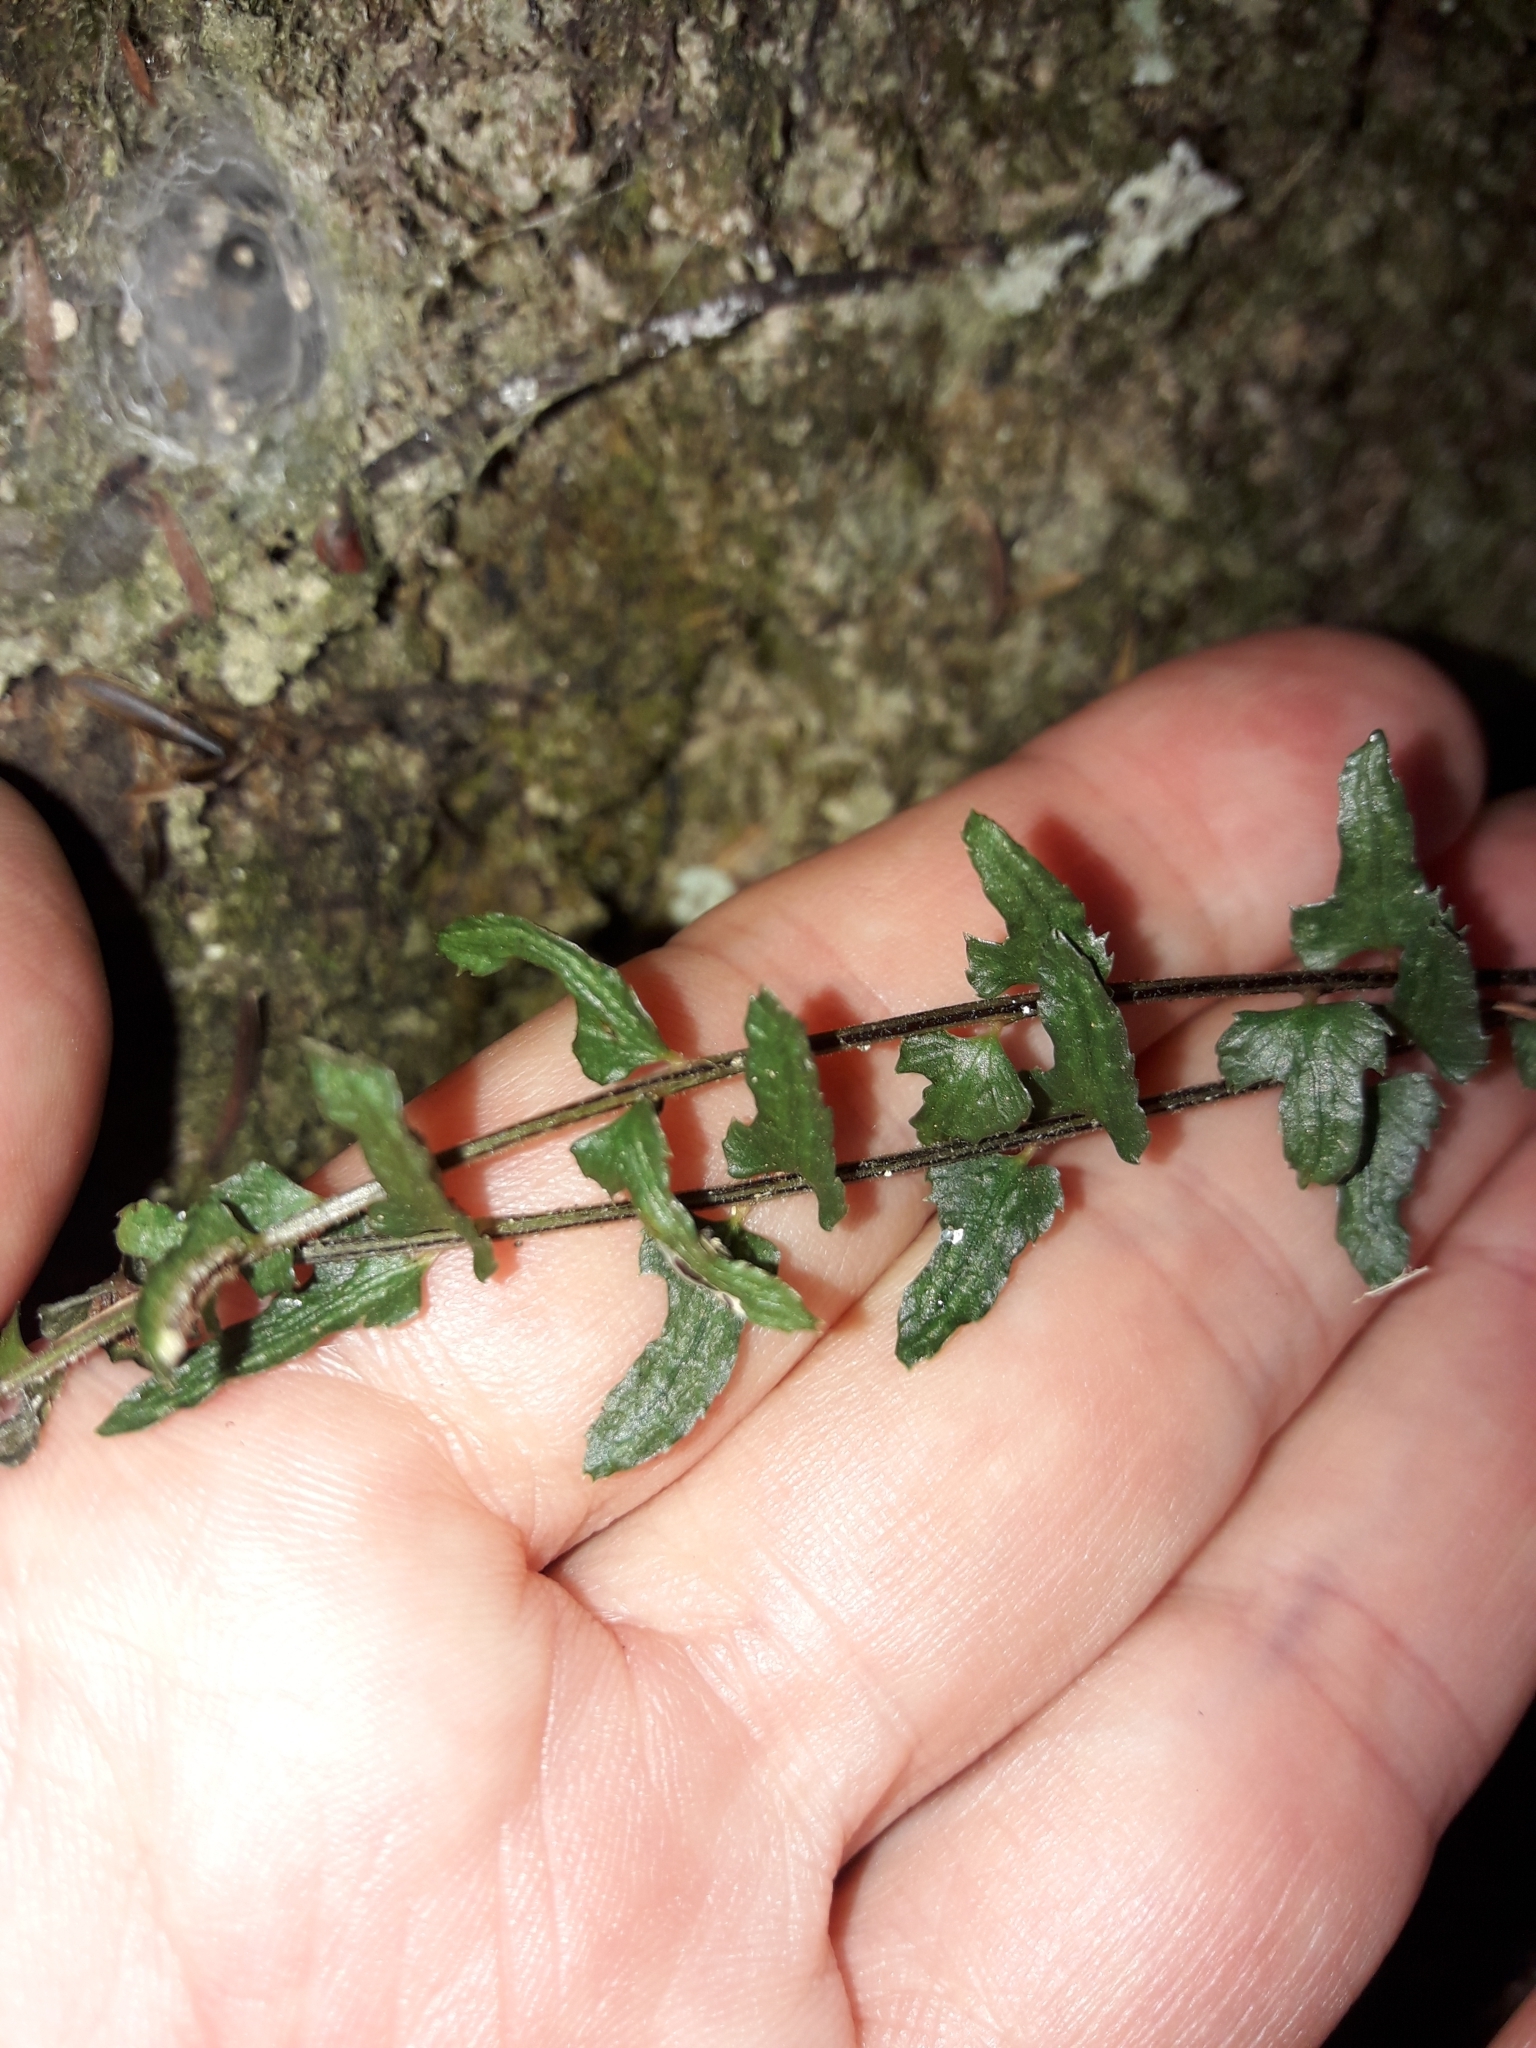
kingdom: Plantae
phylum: Tracheophyta
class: Polypodiopsida
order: Polypodiales
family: Blechnaceae
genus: Doodia
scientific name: Doodia mollis
